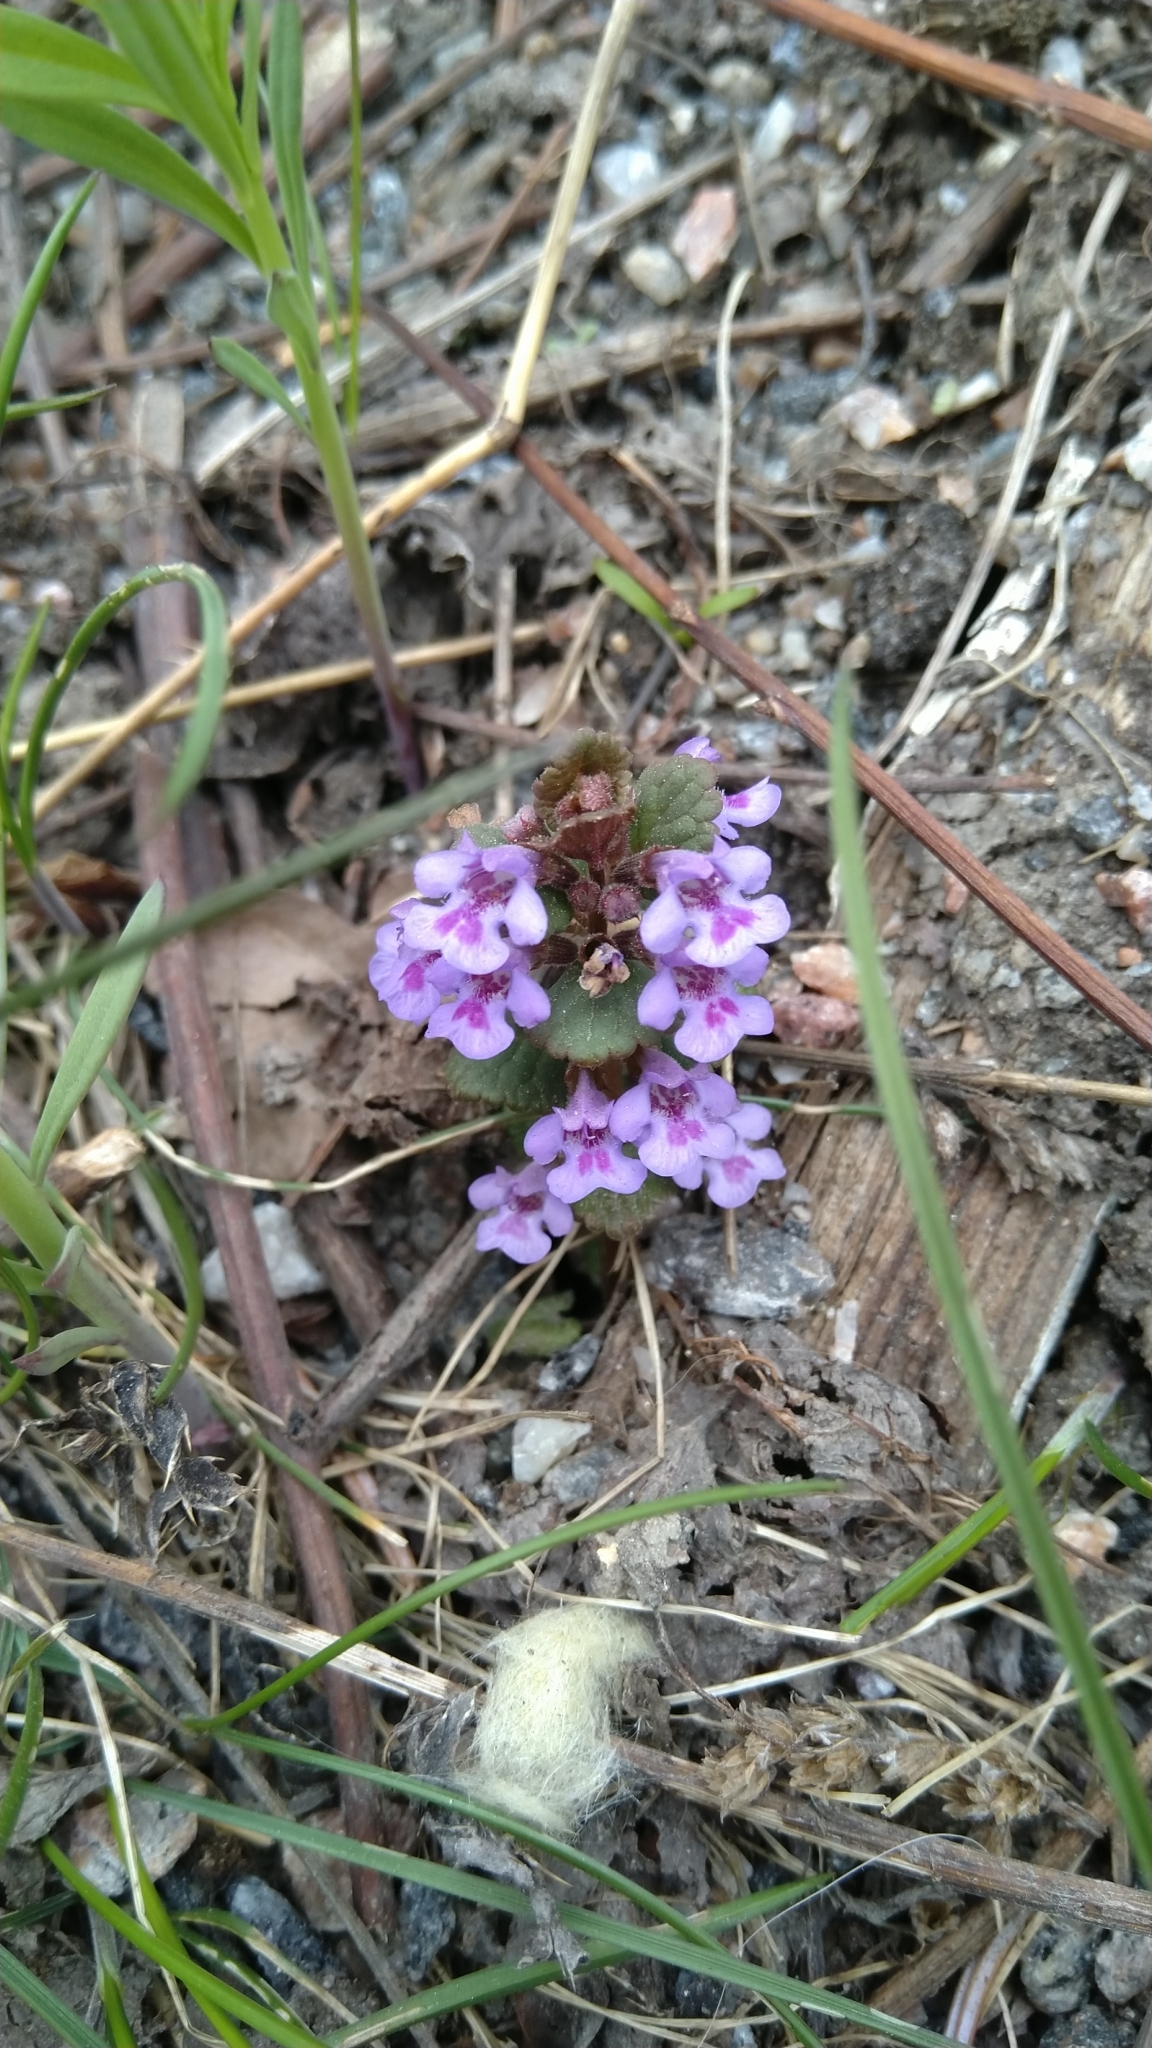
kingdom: Plantae
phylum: Tracheophyta
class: Magnoliopsida
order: Lamiales
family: Lamiaceae
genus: Glechoma
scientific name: Glechoma hederacea
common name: Ground ivy
